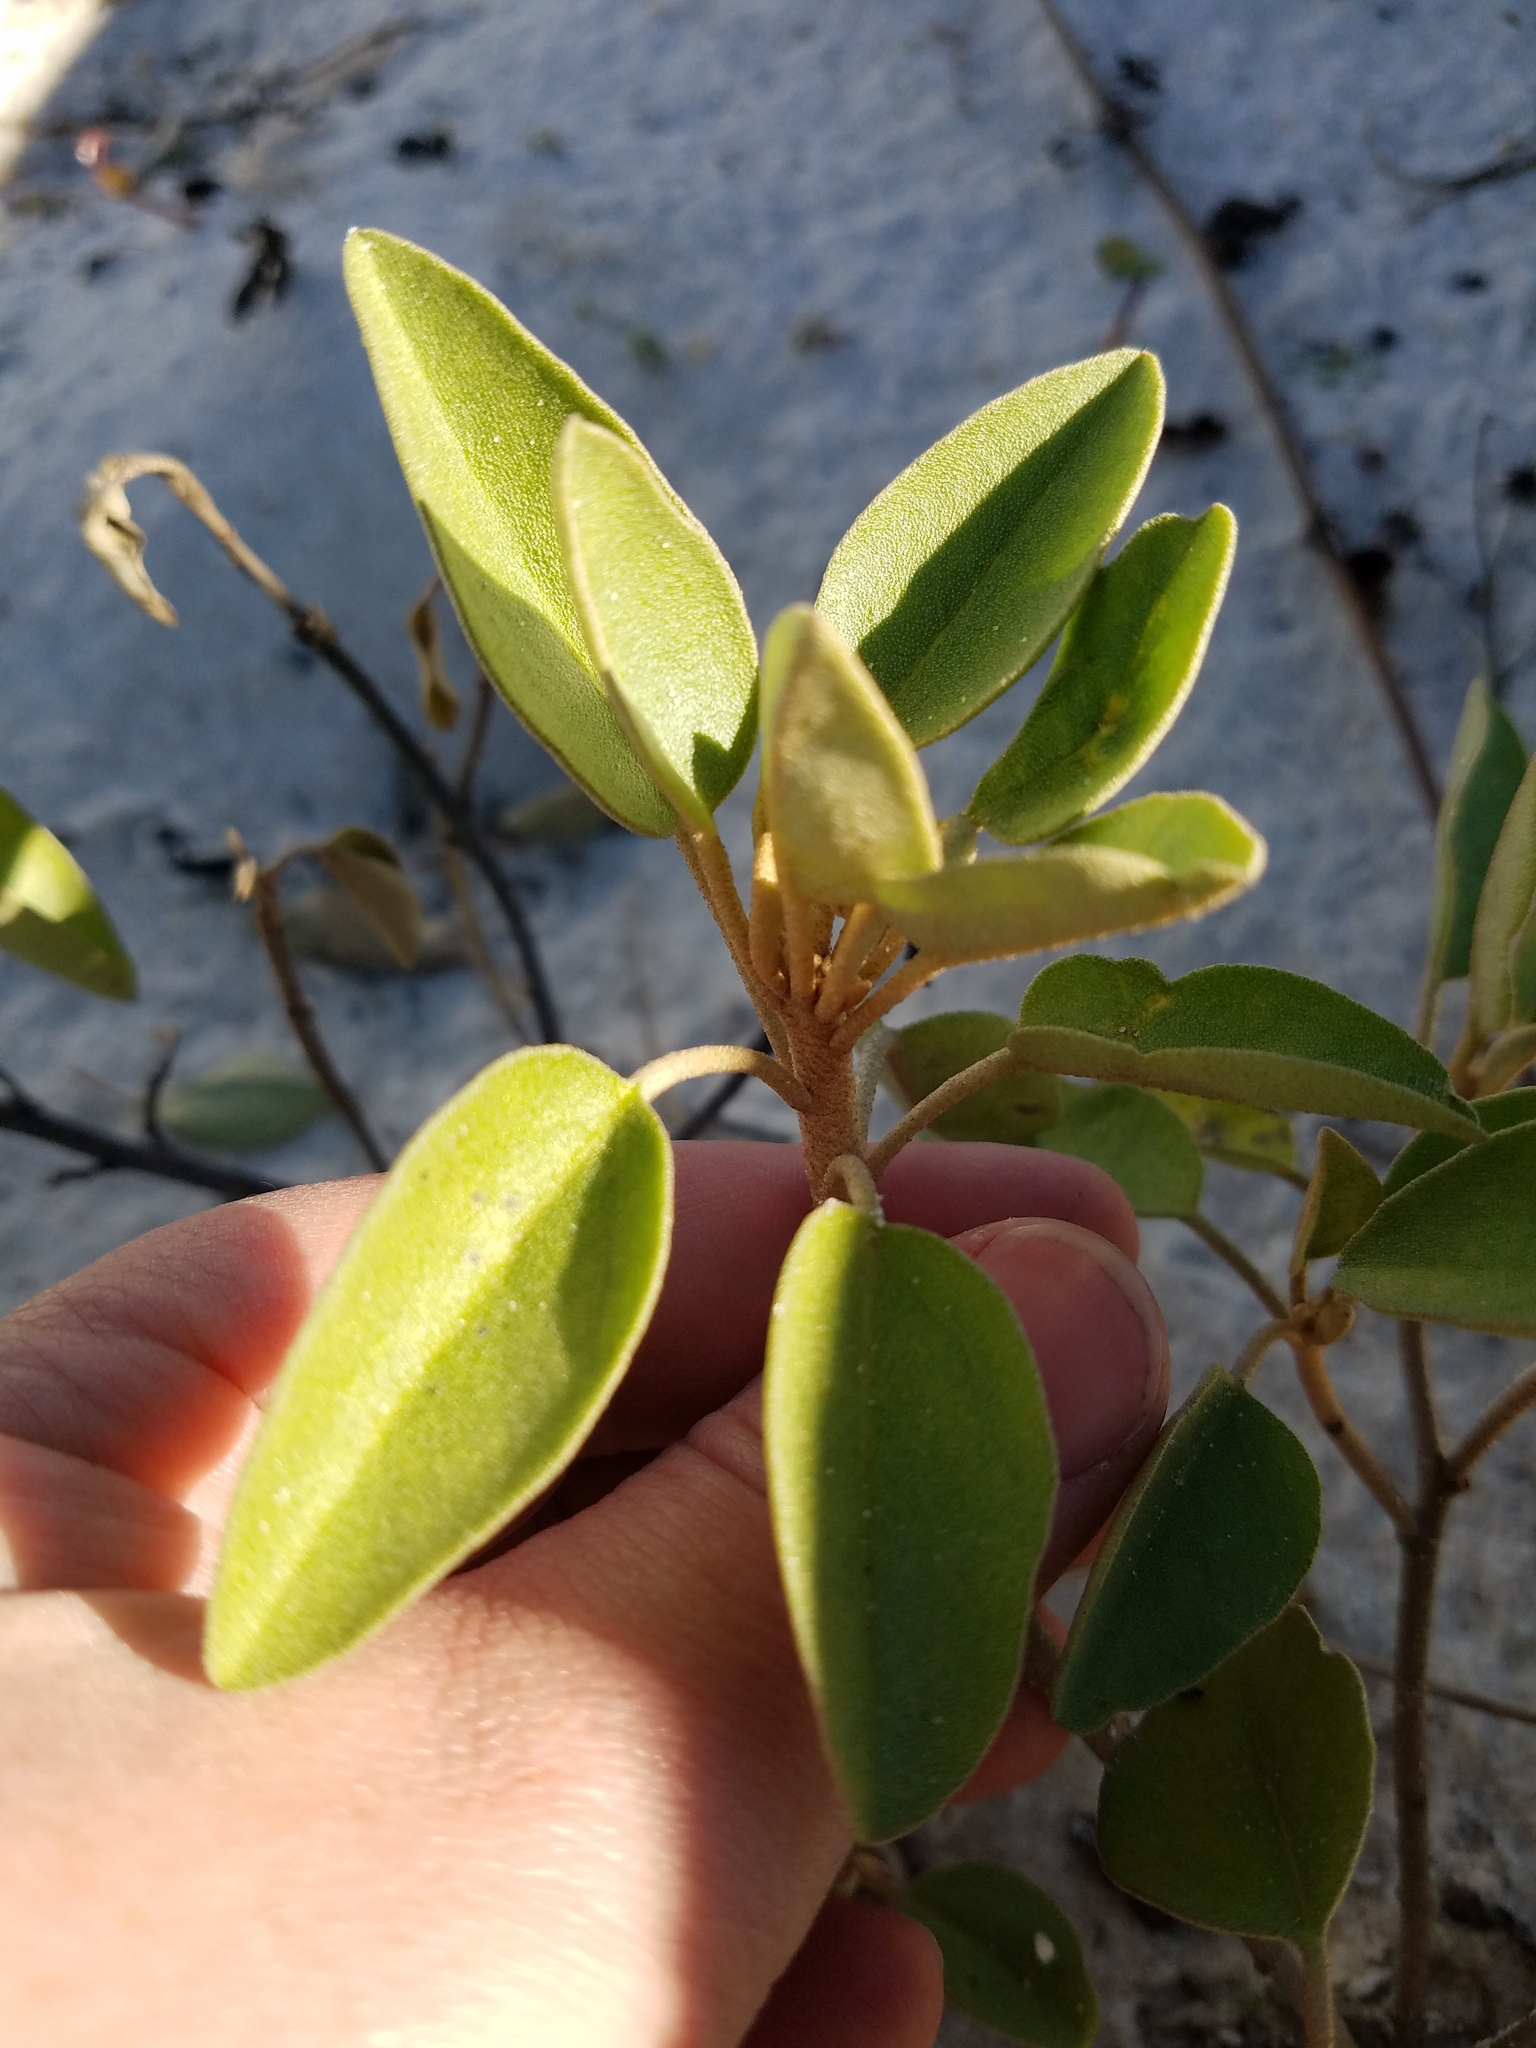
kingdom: Plantae
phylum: Tracheophyta
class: Magnoliopsida
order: Malpighiales
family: Euphorbiaceae
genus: Croton
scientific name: Croton punctatus
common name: Beach-tea
